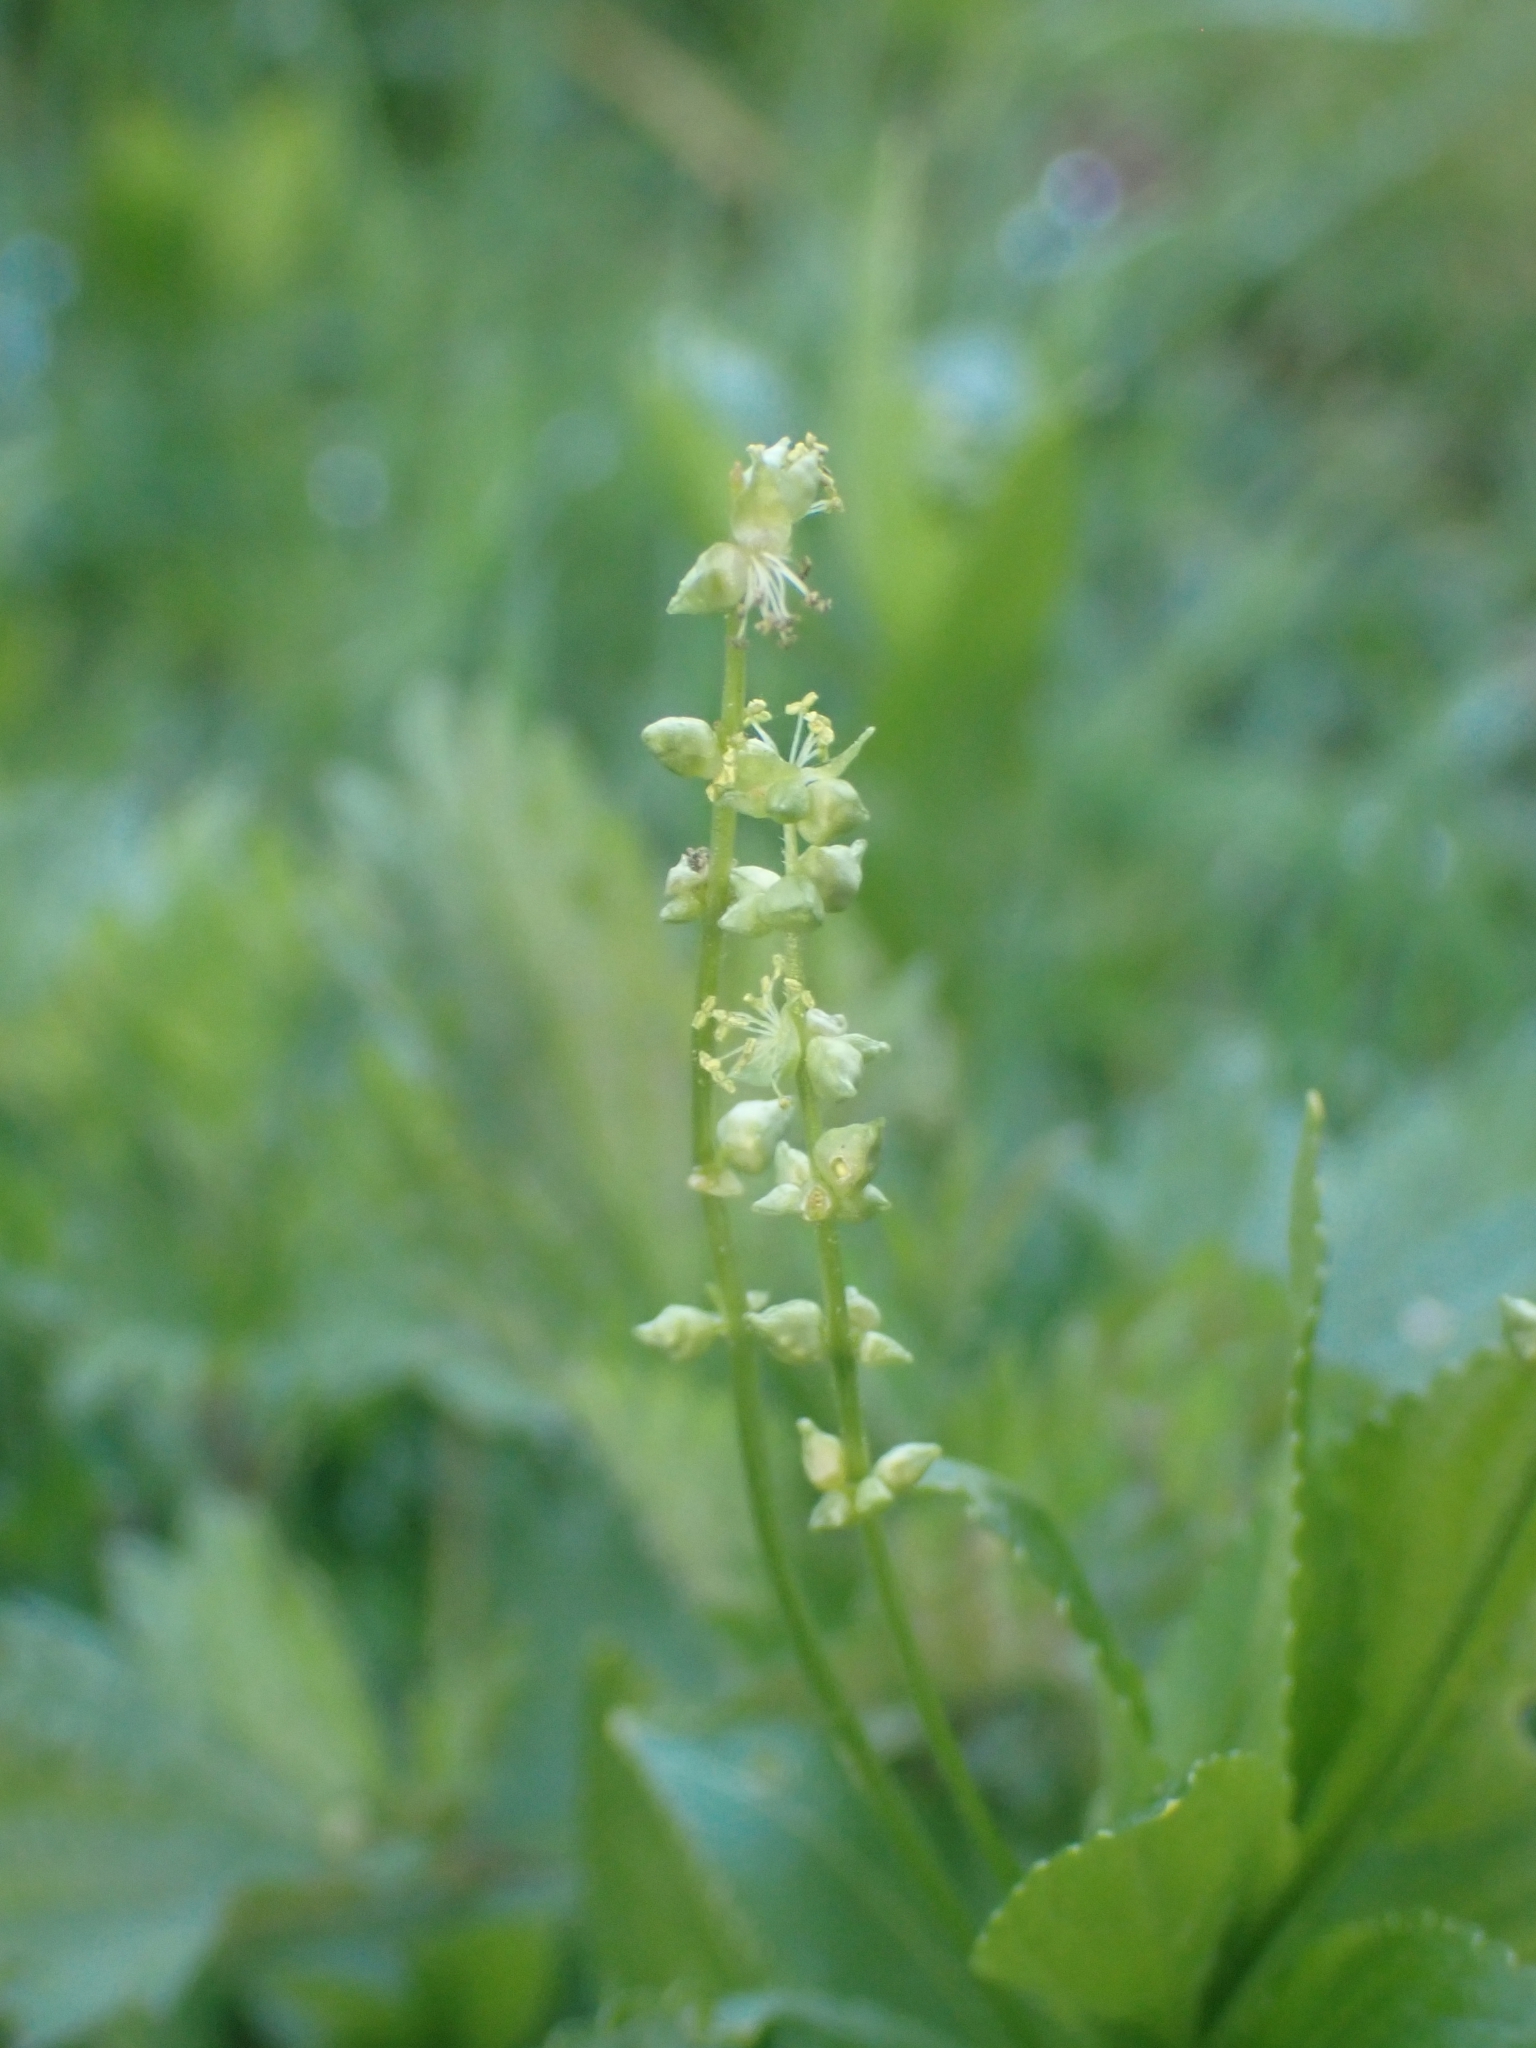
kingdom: Plantae
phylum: Tracheophyta
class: Magnoliopsida
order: Malpighiales
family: Euphorbiaceae
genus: Mercurialis
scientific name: Mercurialis perennis
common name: Dog mercury
